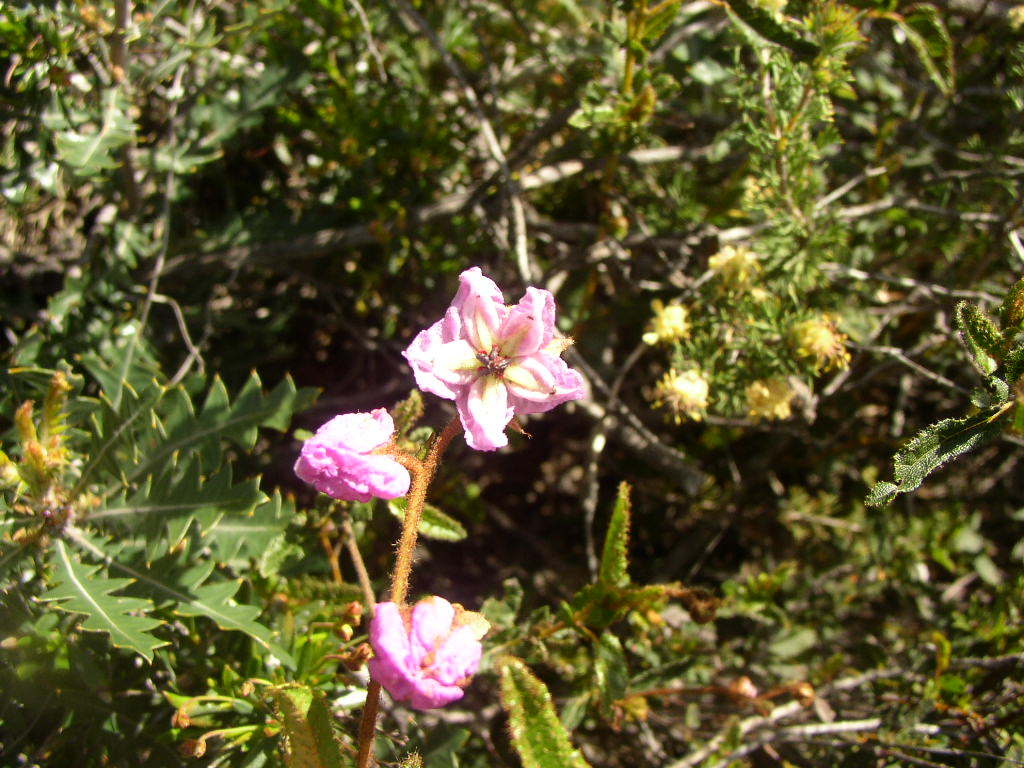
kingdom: Plantae
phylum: Tracheophyta
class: Magnoliopsida
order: Malvales
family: Malvaceae
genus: Thomasia
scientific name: Thomasia grandiflora
